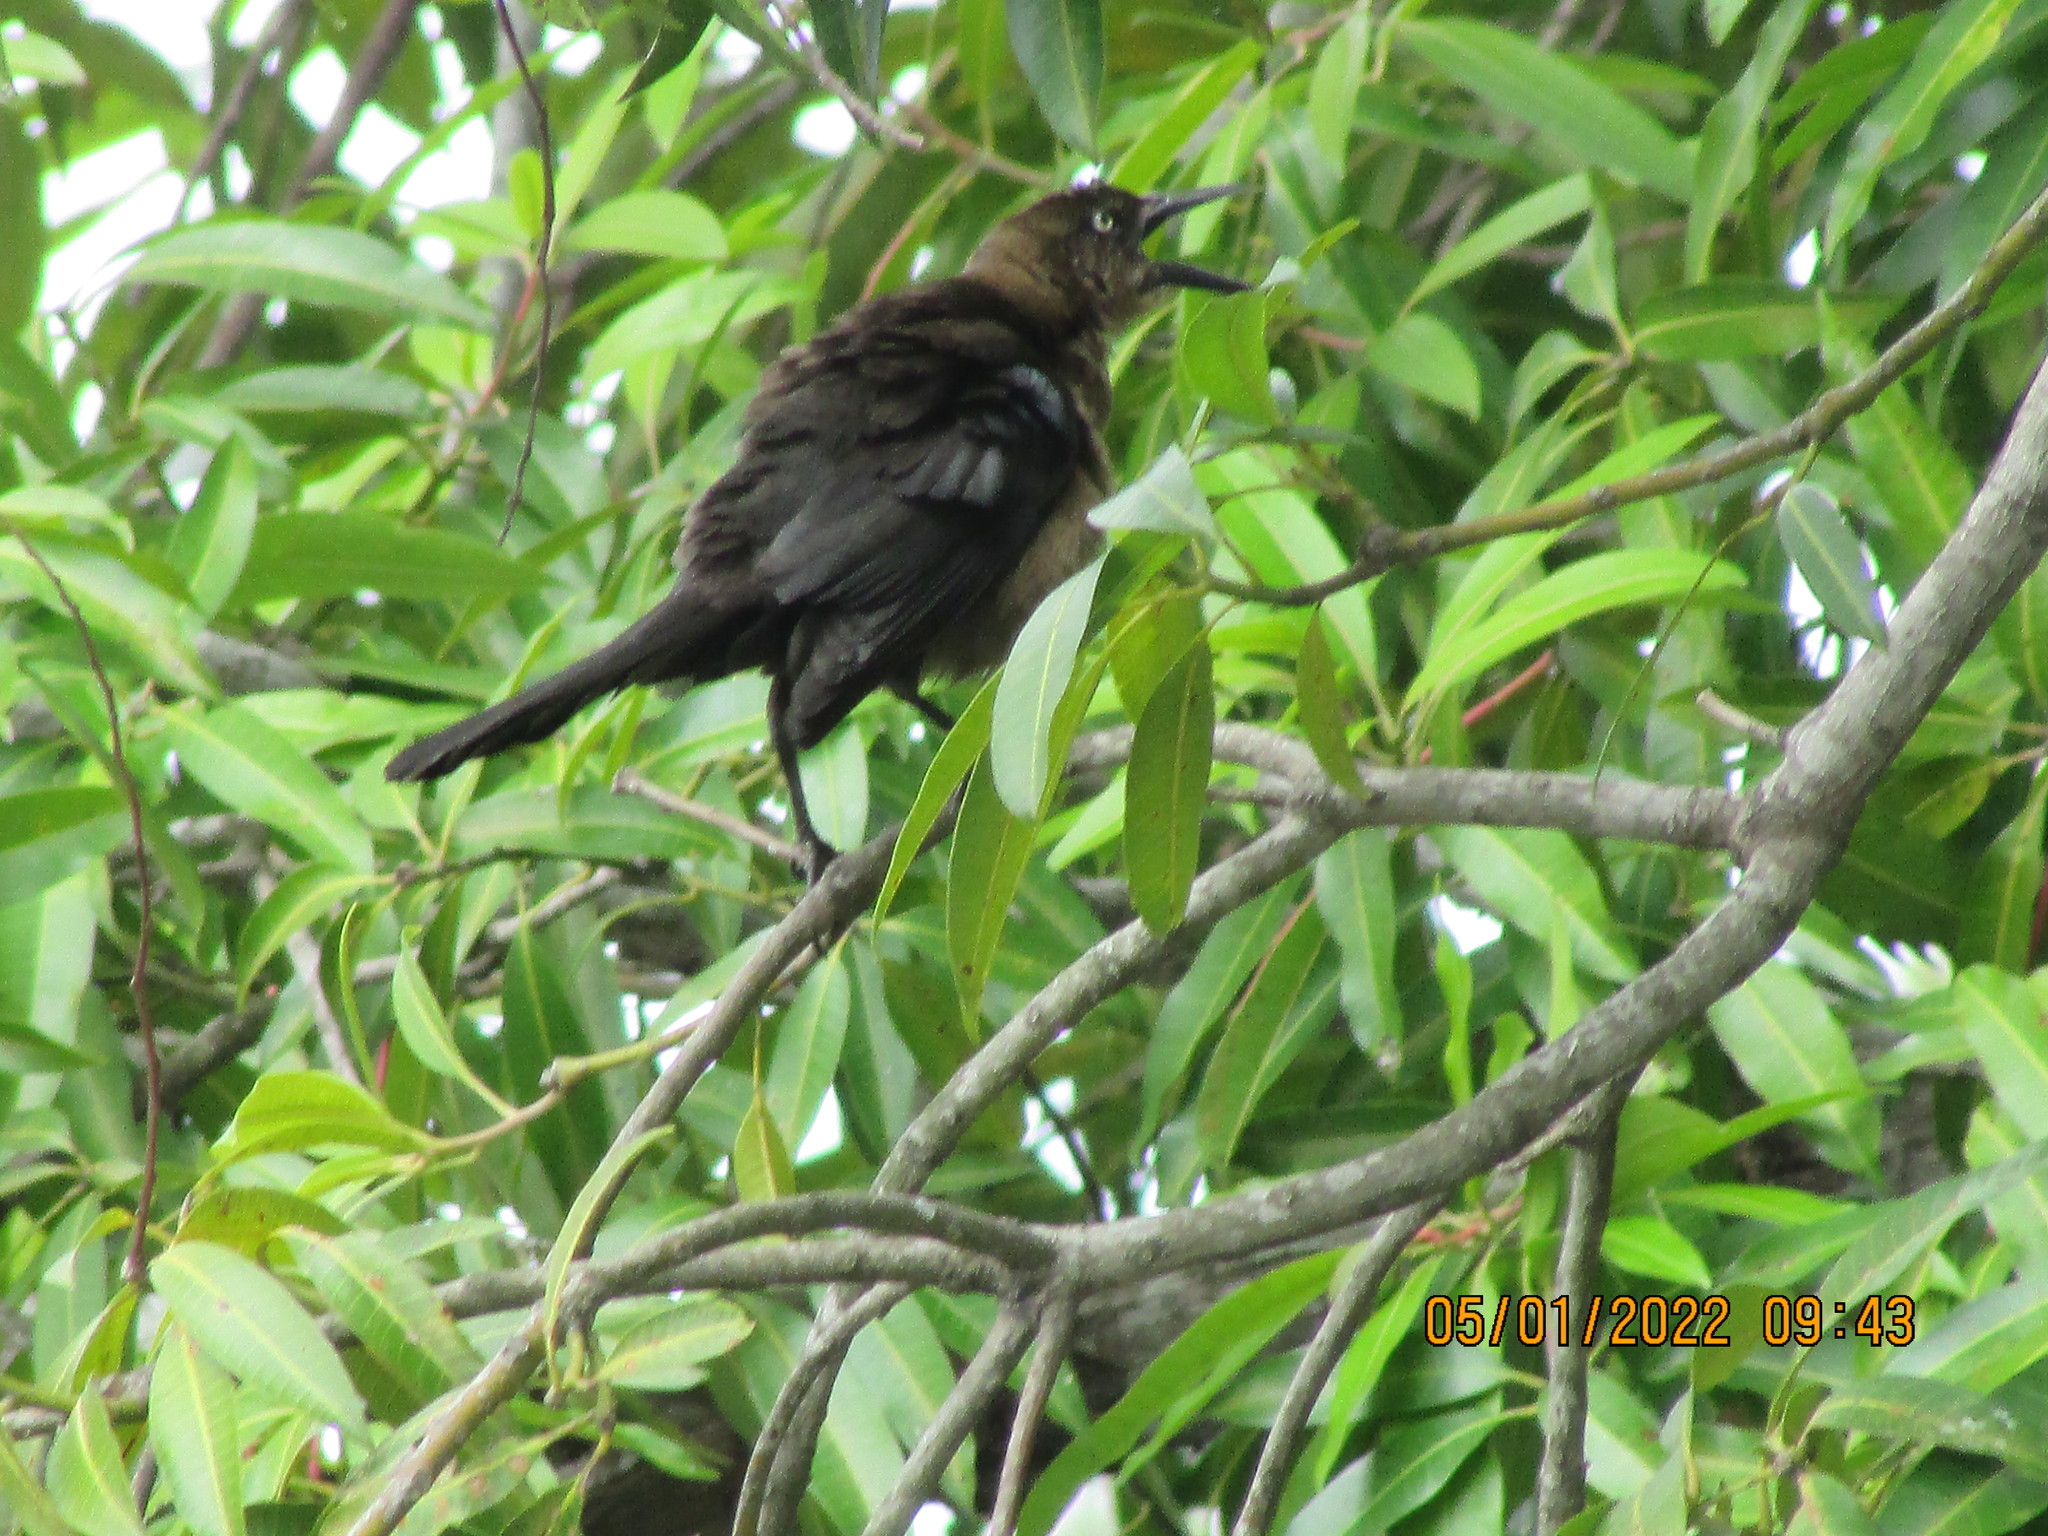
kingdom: Animalia
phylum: Chordata
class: Aves
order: Passeriformes
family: Icteridae
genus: Quiscalus
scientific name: Quiscalus mexicanus
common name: Great-tailed grackle
